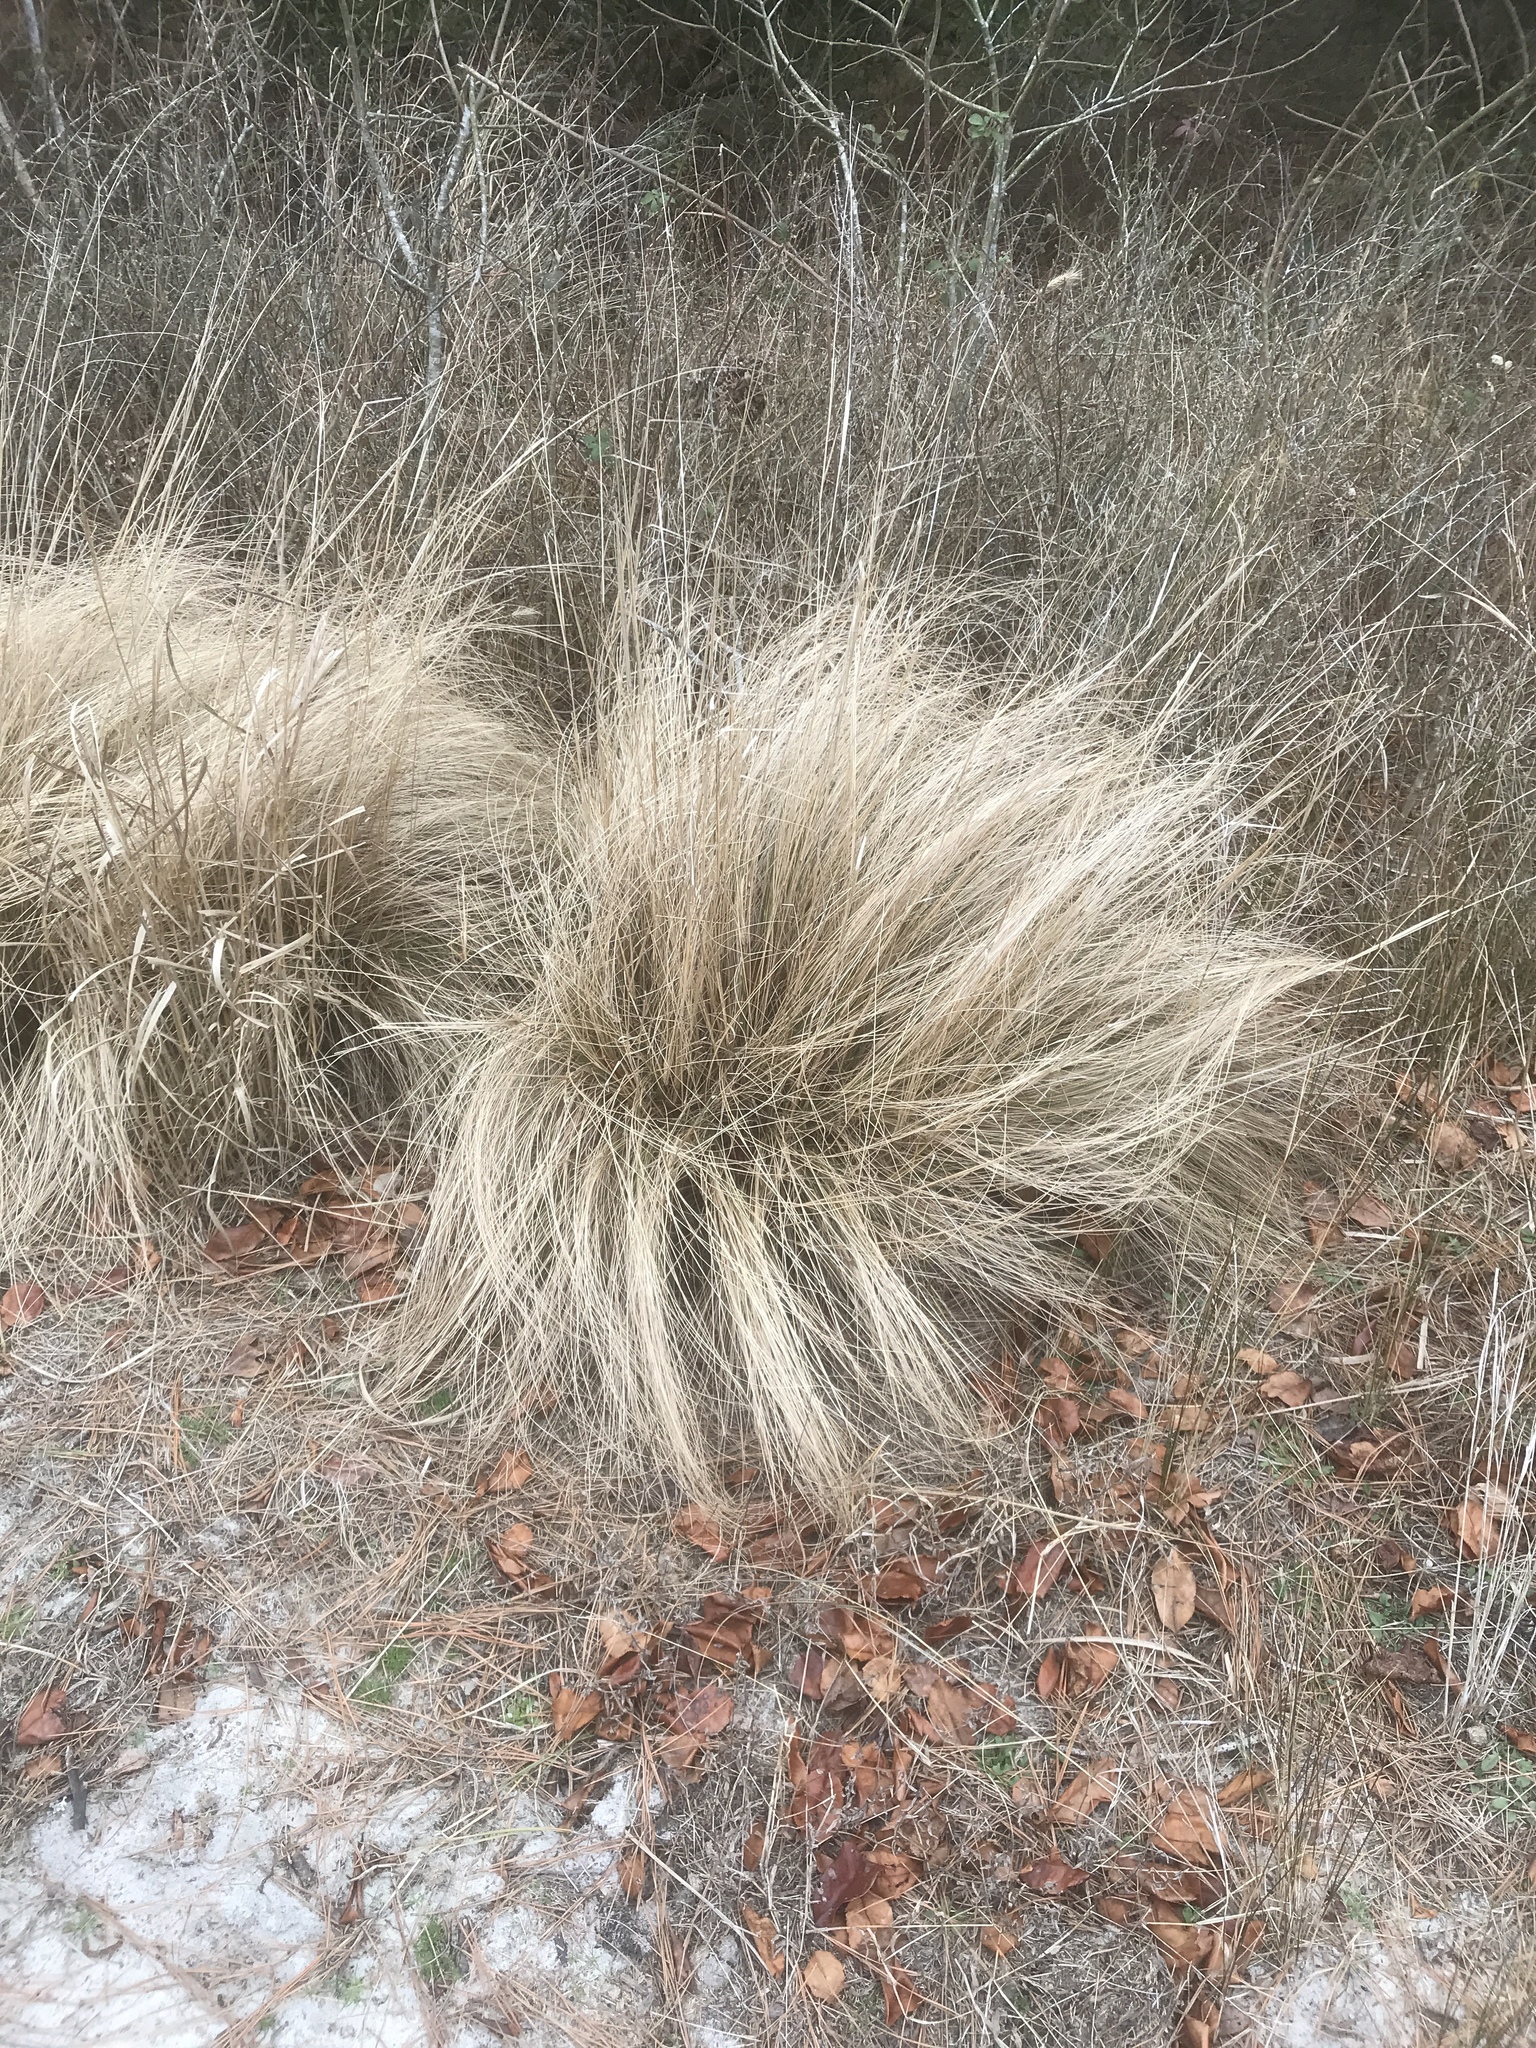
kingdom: Plantae
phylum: Tracheophyta
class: Liliopsida
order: Poales
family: Poaceae
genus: Eragrostis
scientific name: Eragrostis curvula
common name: African love-grass
